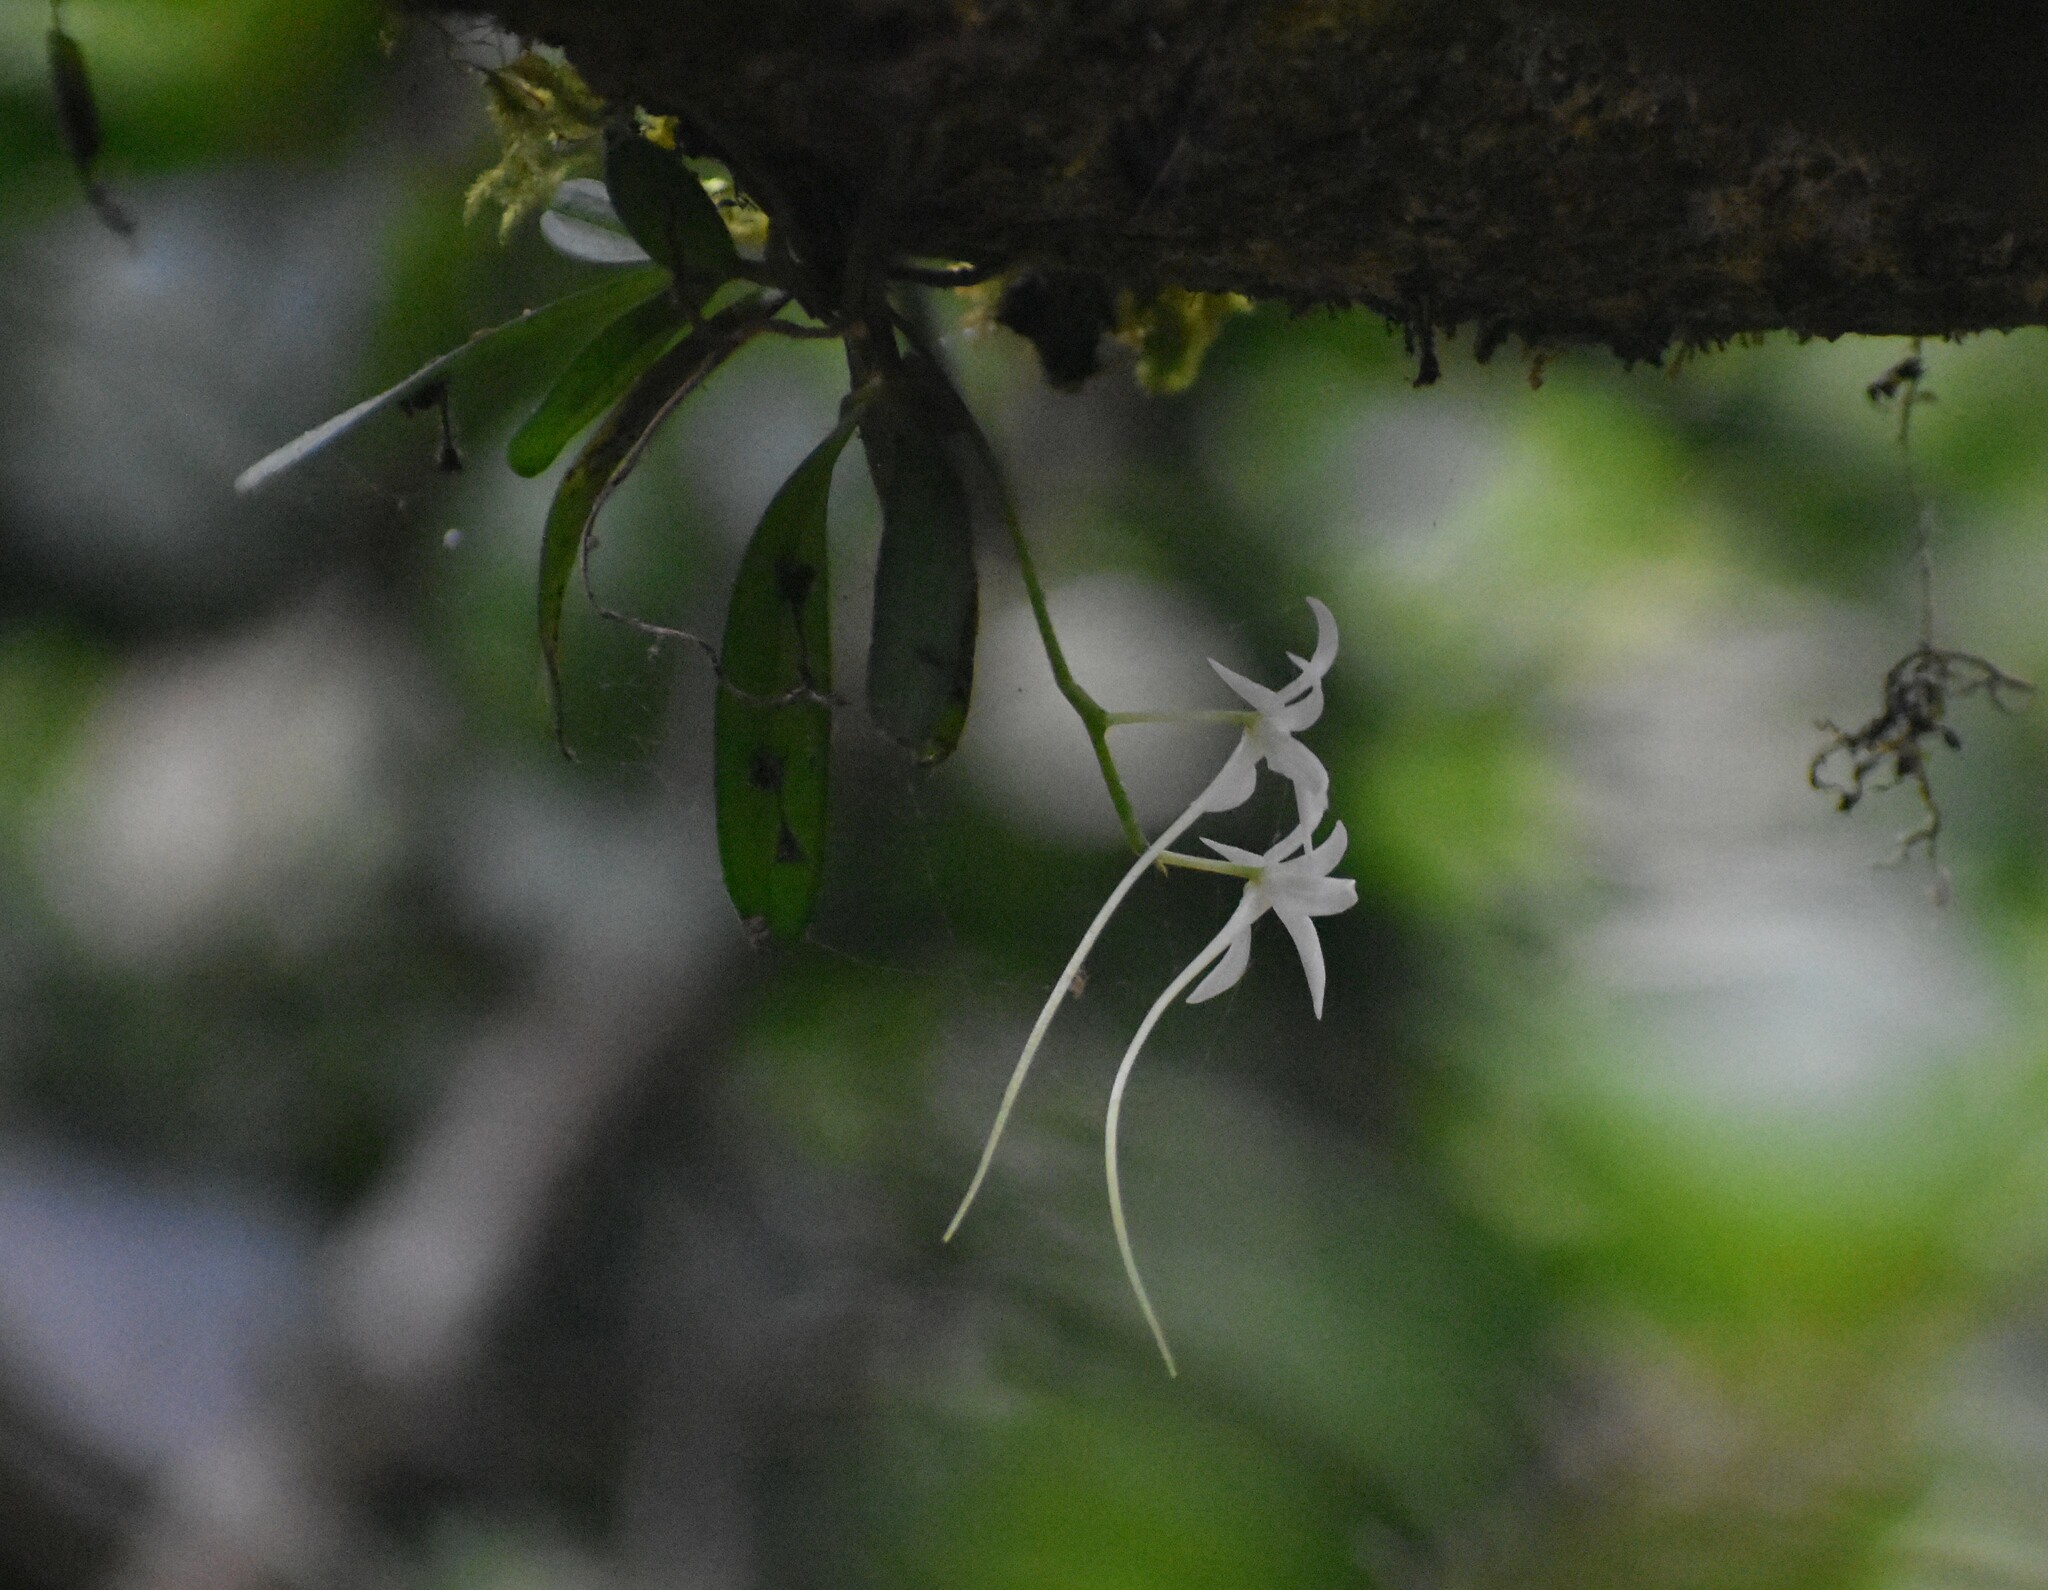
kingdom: Plantae
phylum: Tracheophyta
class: Liliopsida
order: Asparagales
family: Orchidaceae
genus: Mystacidium
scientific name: Mystacidium capense
